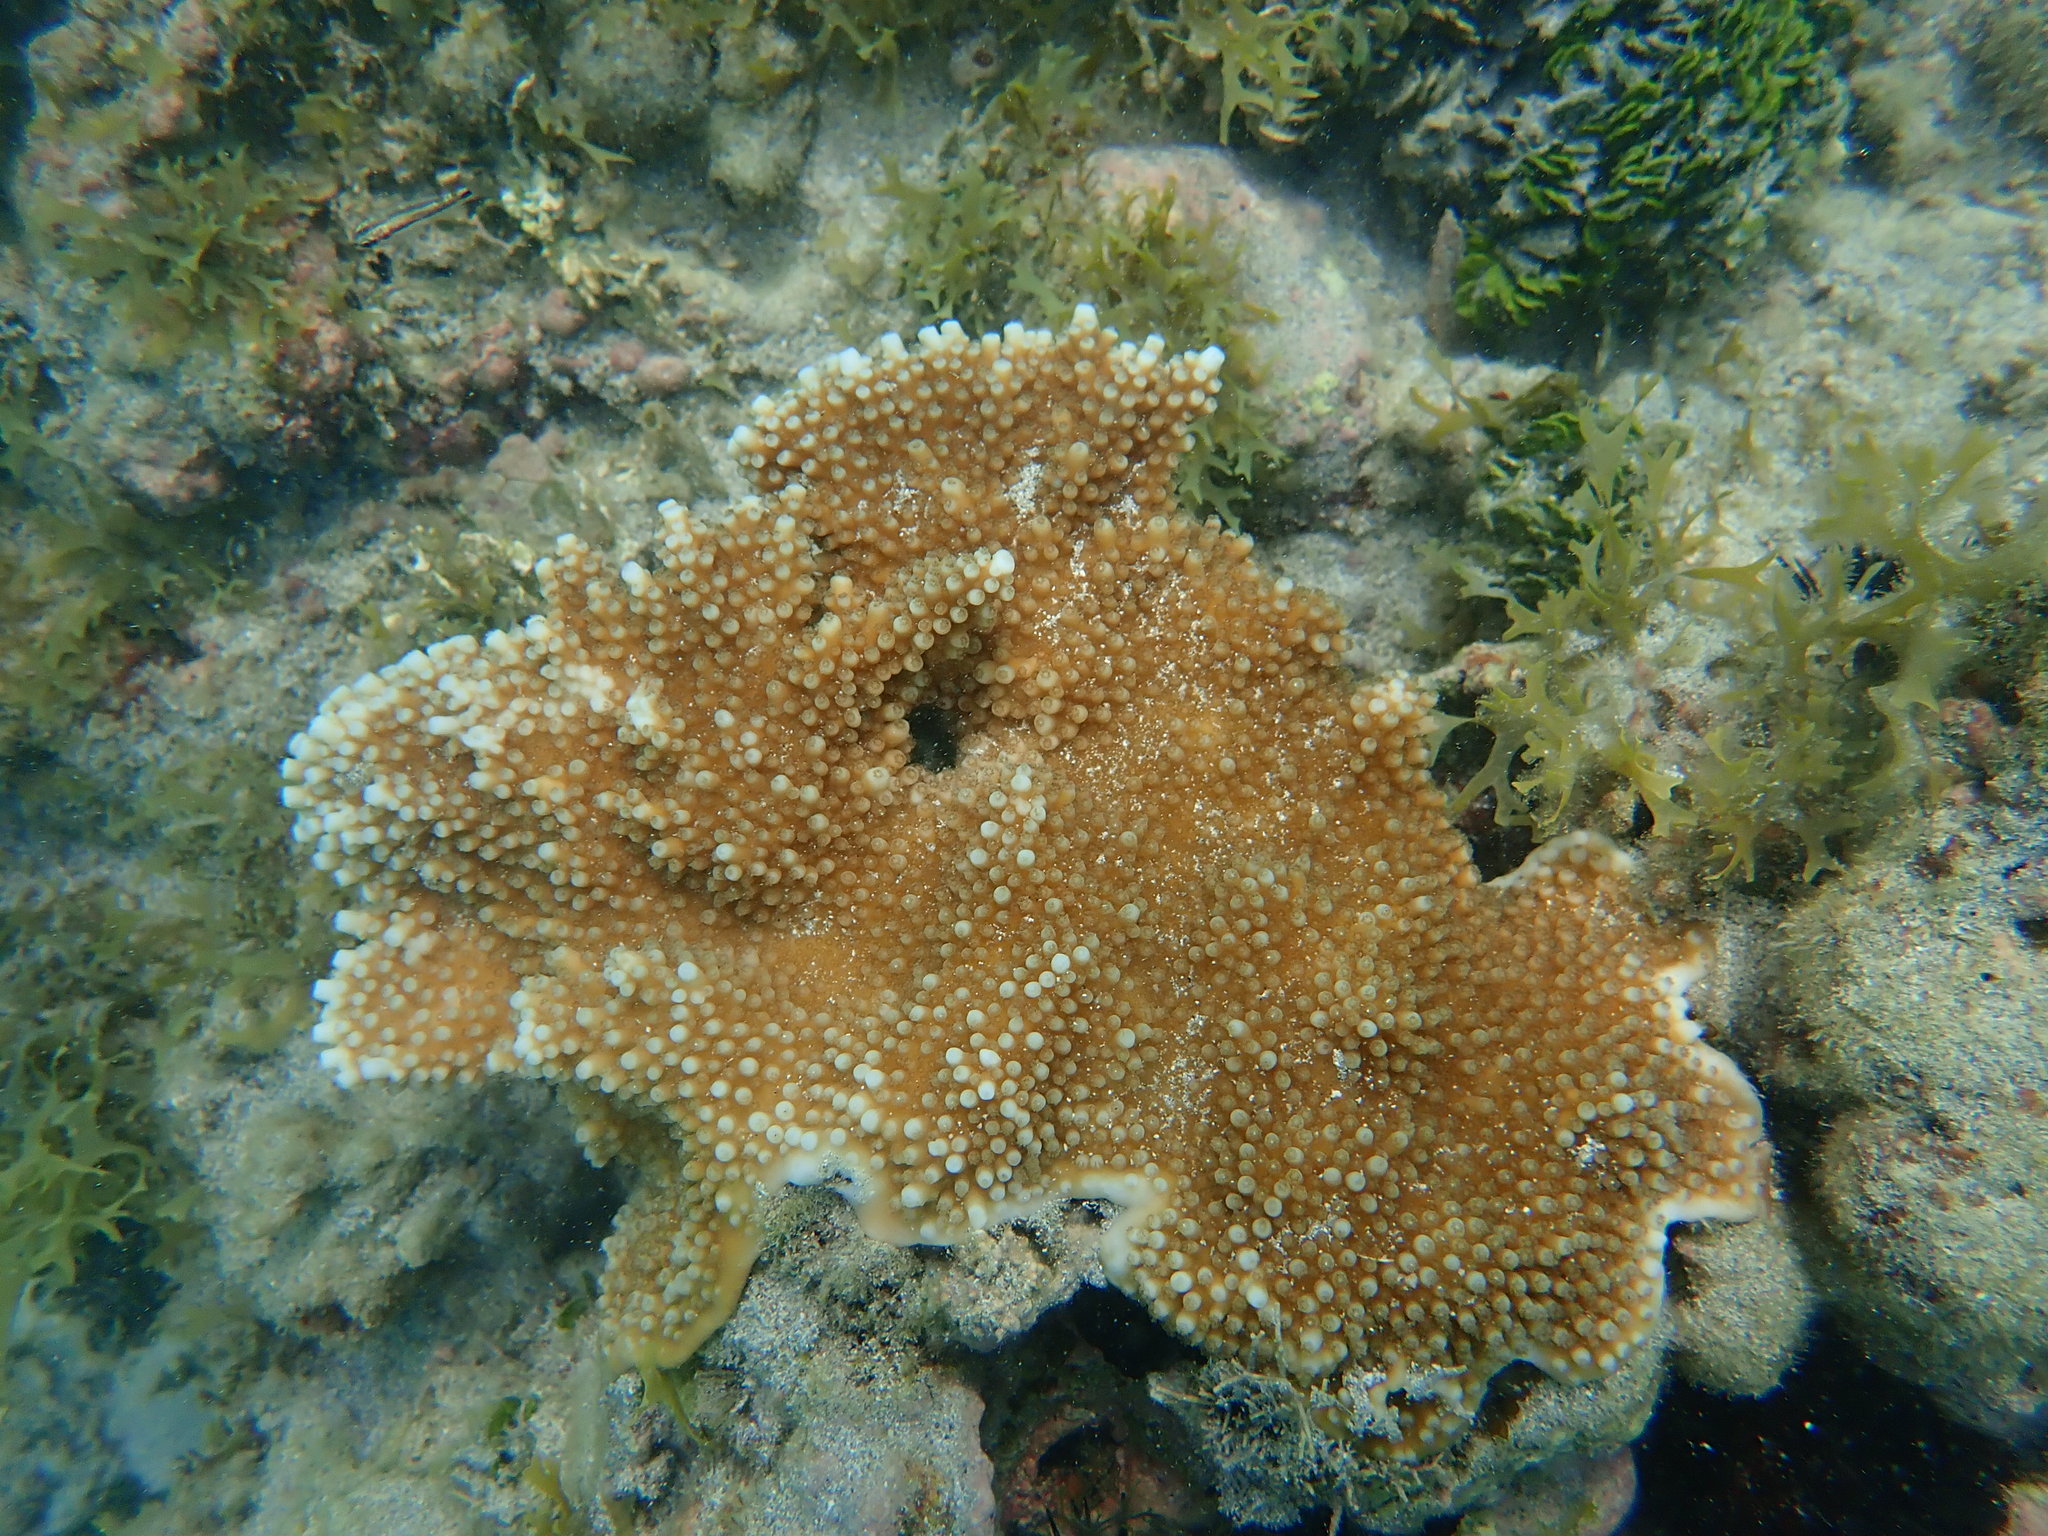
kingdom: Animalia
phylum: Cnidaria
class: Anthozoa
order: Scleractinia
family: Acroporidae
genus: Acropora
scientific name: Acropora palmata
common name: Elkhorn coral
